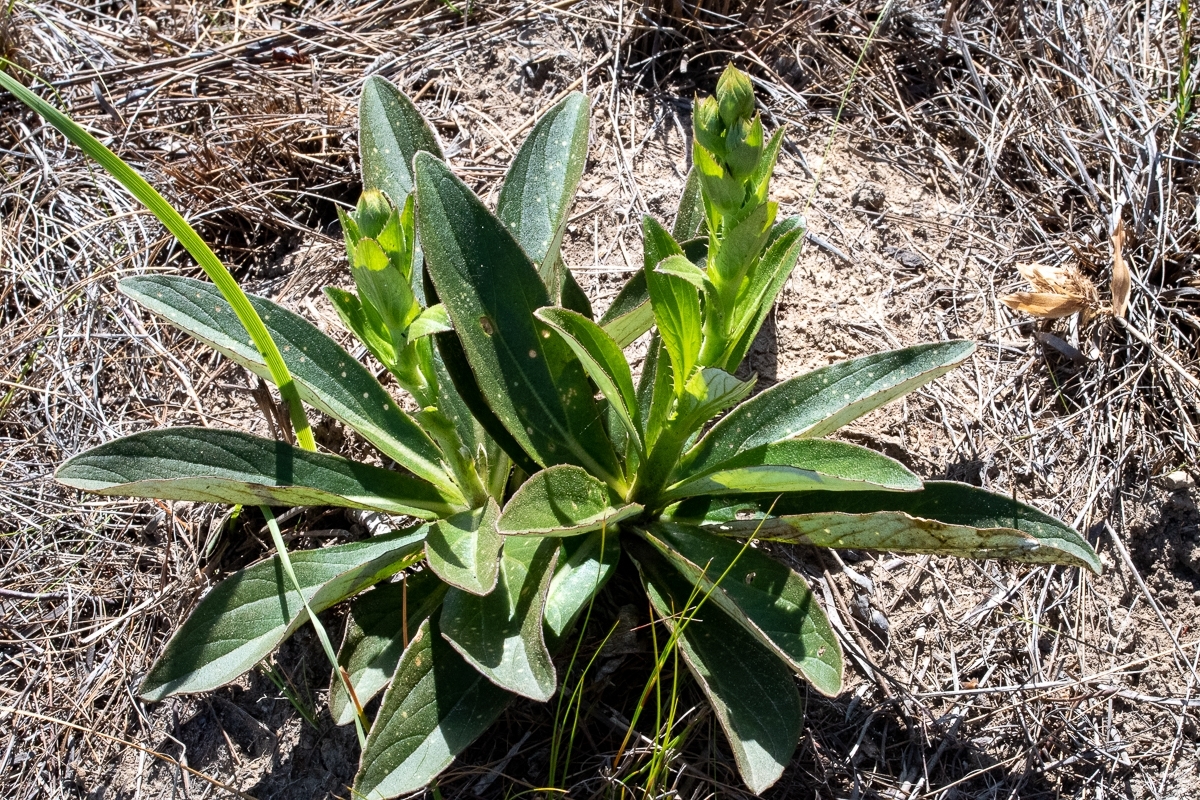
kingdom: Plantae
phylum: Tracheophyta
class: Magnoliopsida
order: Asterales
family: Asteraceae
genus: Berkheya
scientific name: Berkheya herbacea
